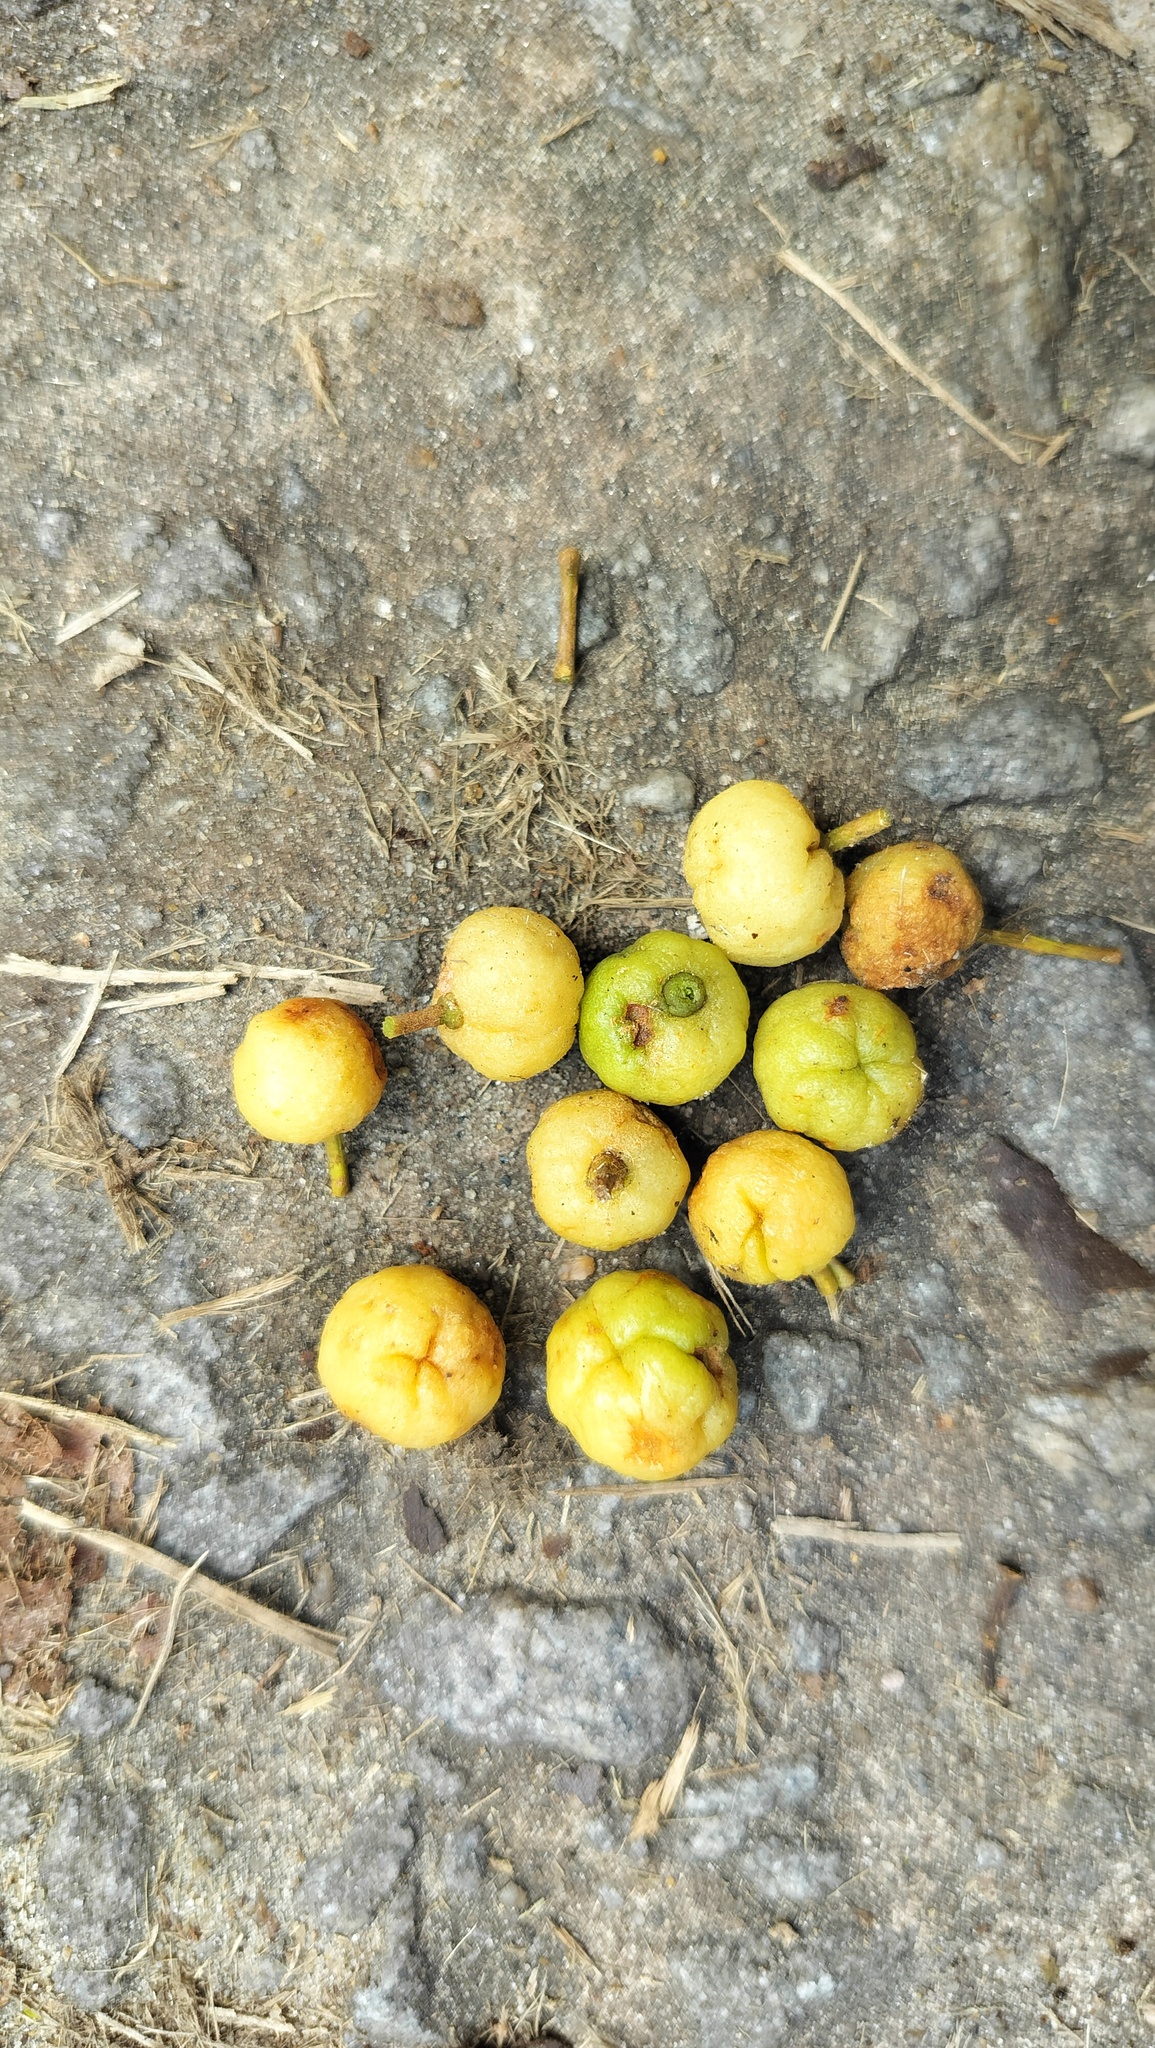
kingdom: Plantae
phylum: Tracheophyta
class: Magnoliopsida
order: Sapindales
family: Rutaceae
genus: Acronychia
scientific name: Acronychia pedunculata
